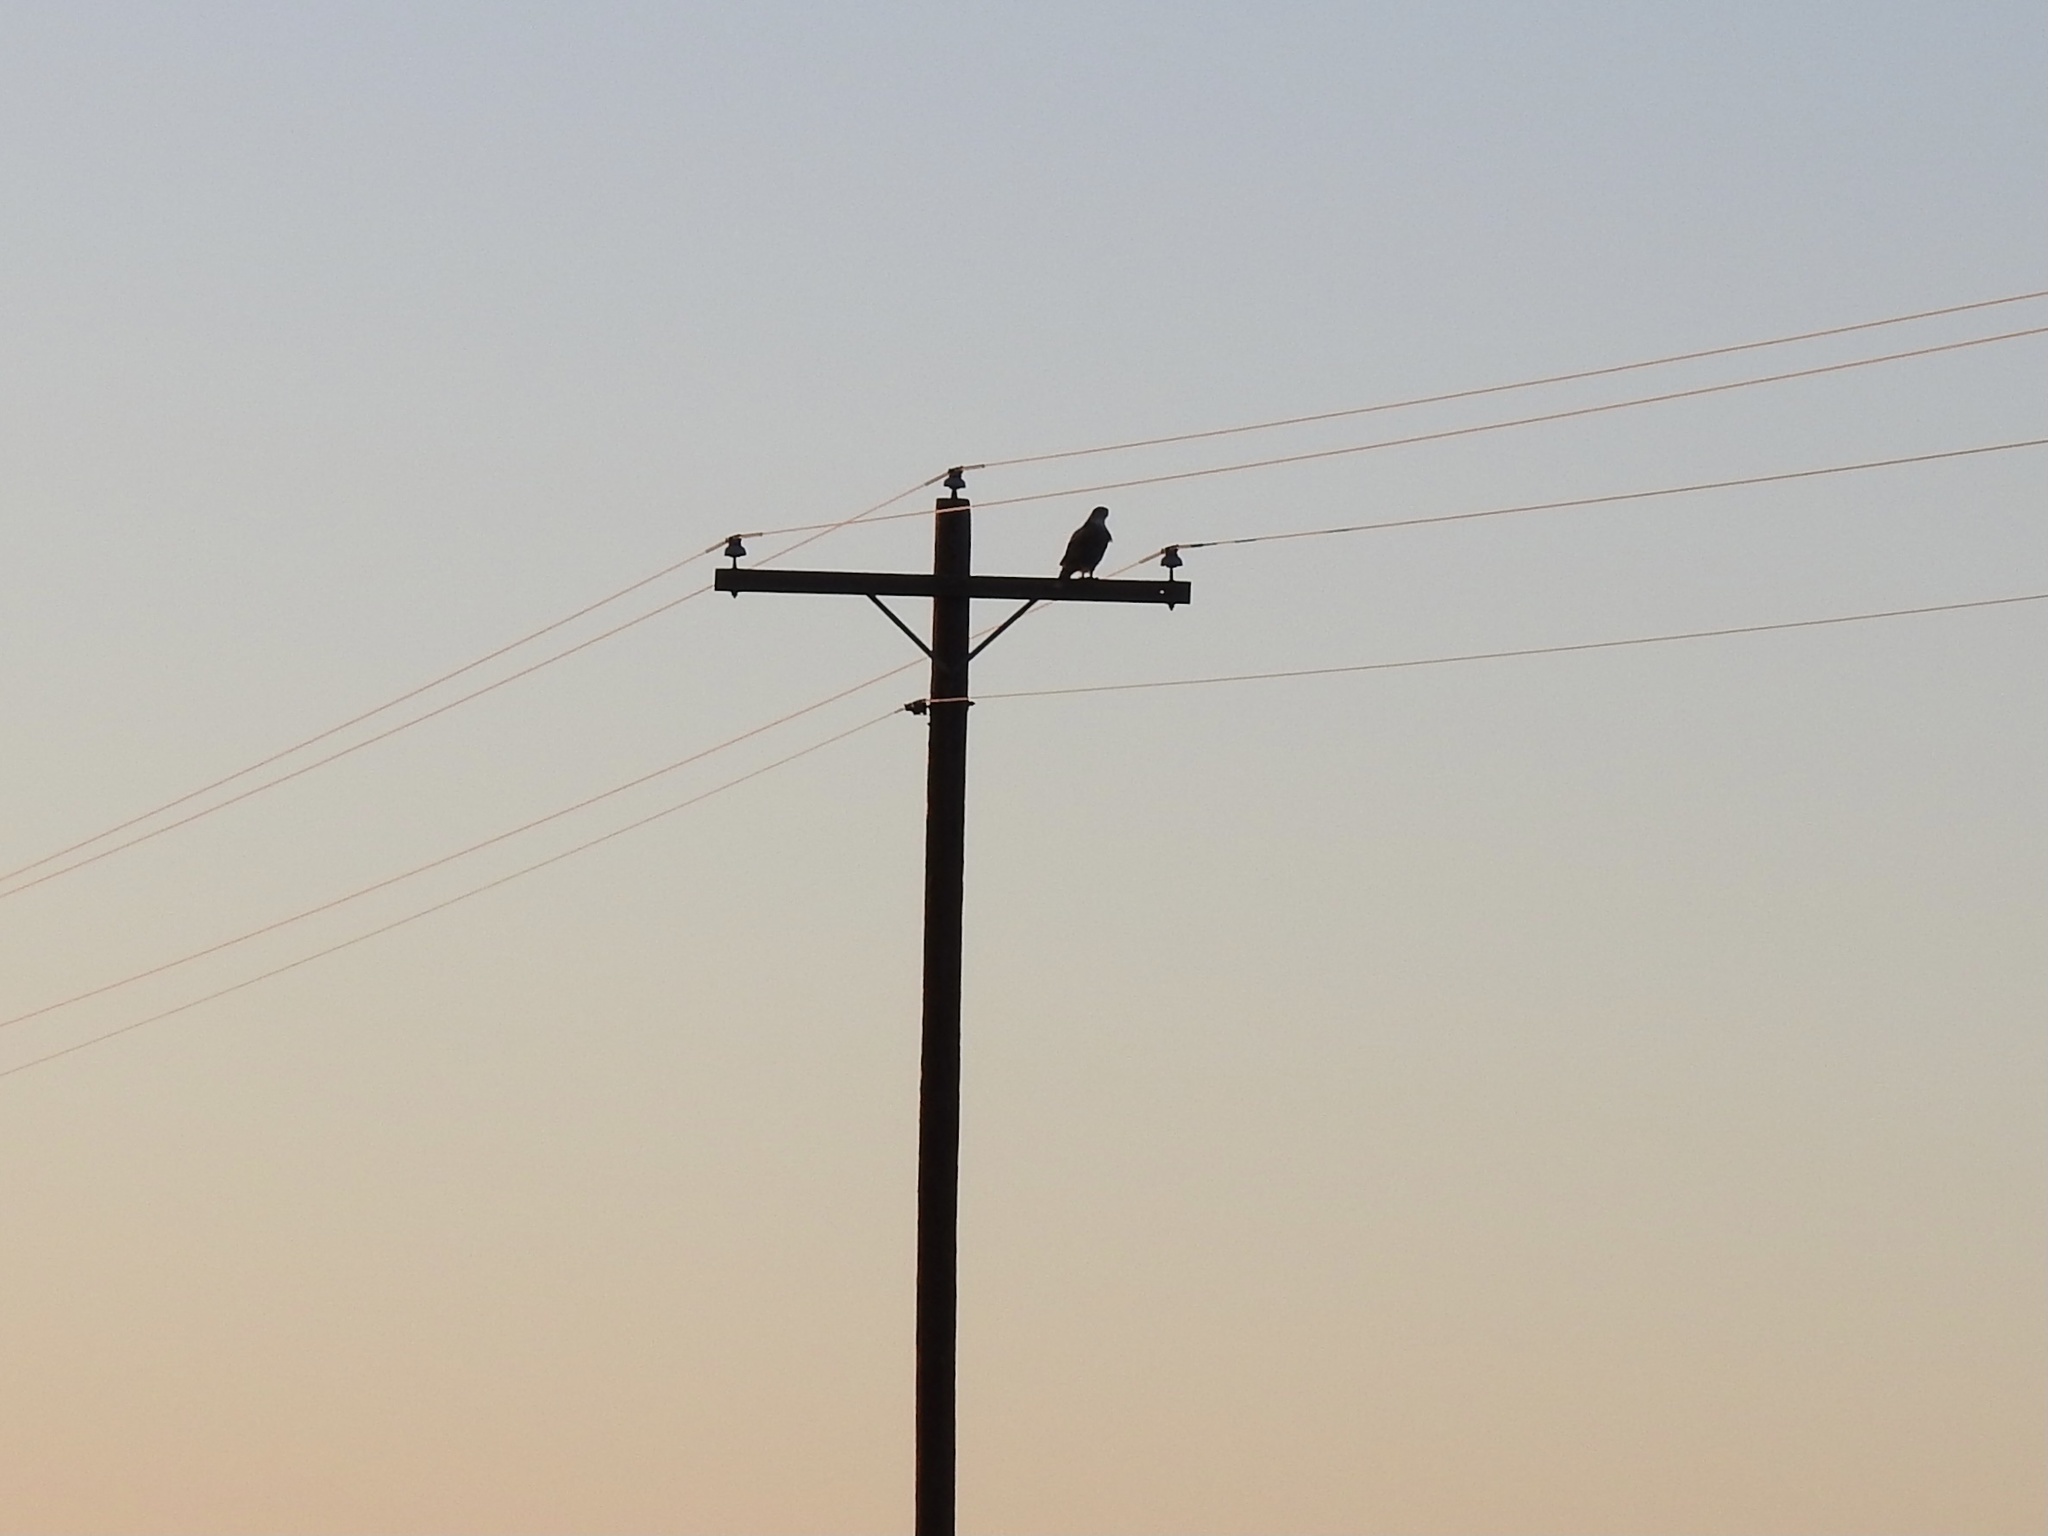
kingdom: Animalia
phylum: Chordata
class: Aves
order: Accipitriformes
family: Accipitridae
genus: Buteo
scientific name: Buteo regalis
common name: Ferruginous hawk
